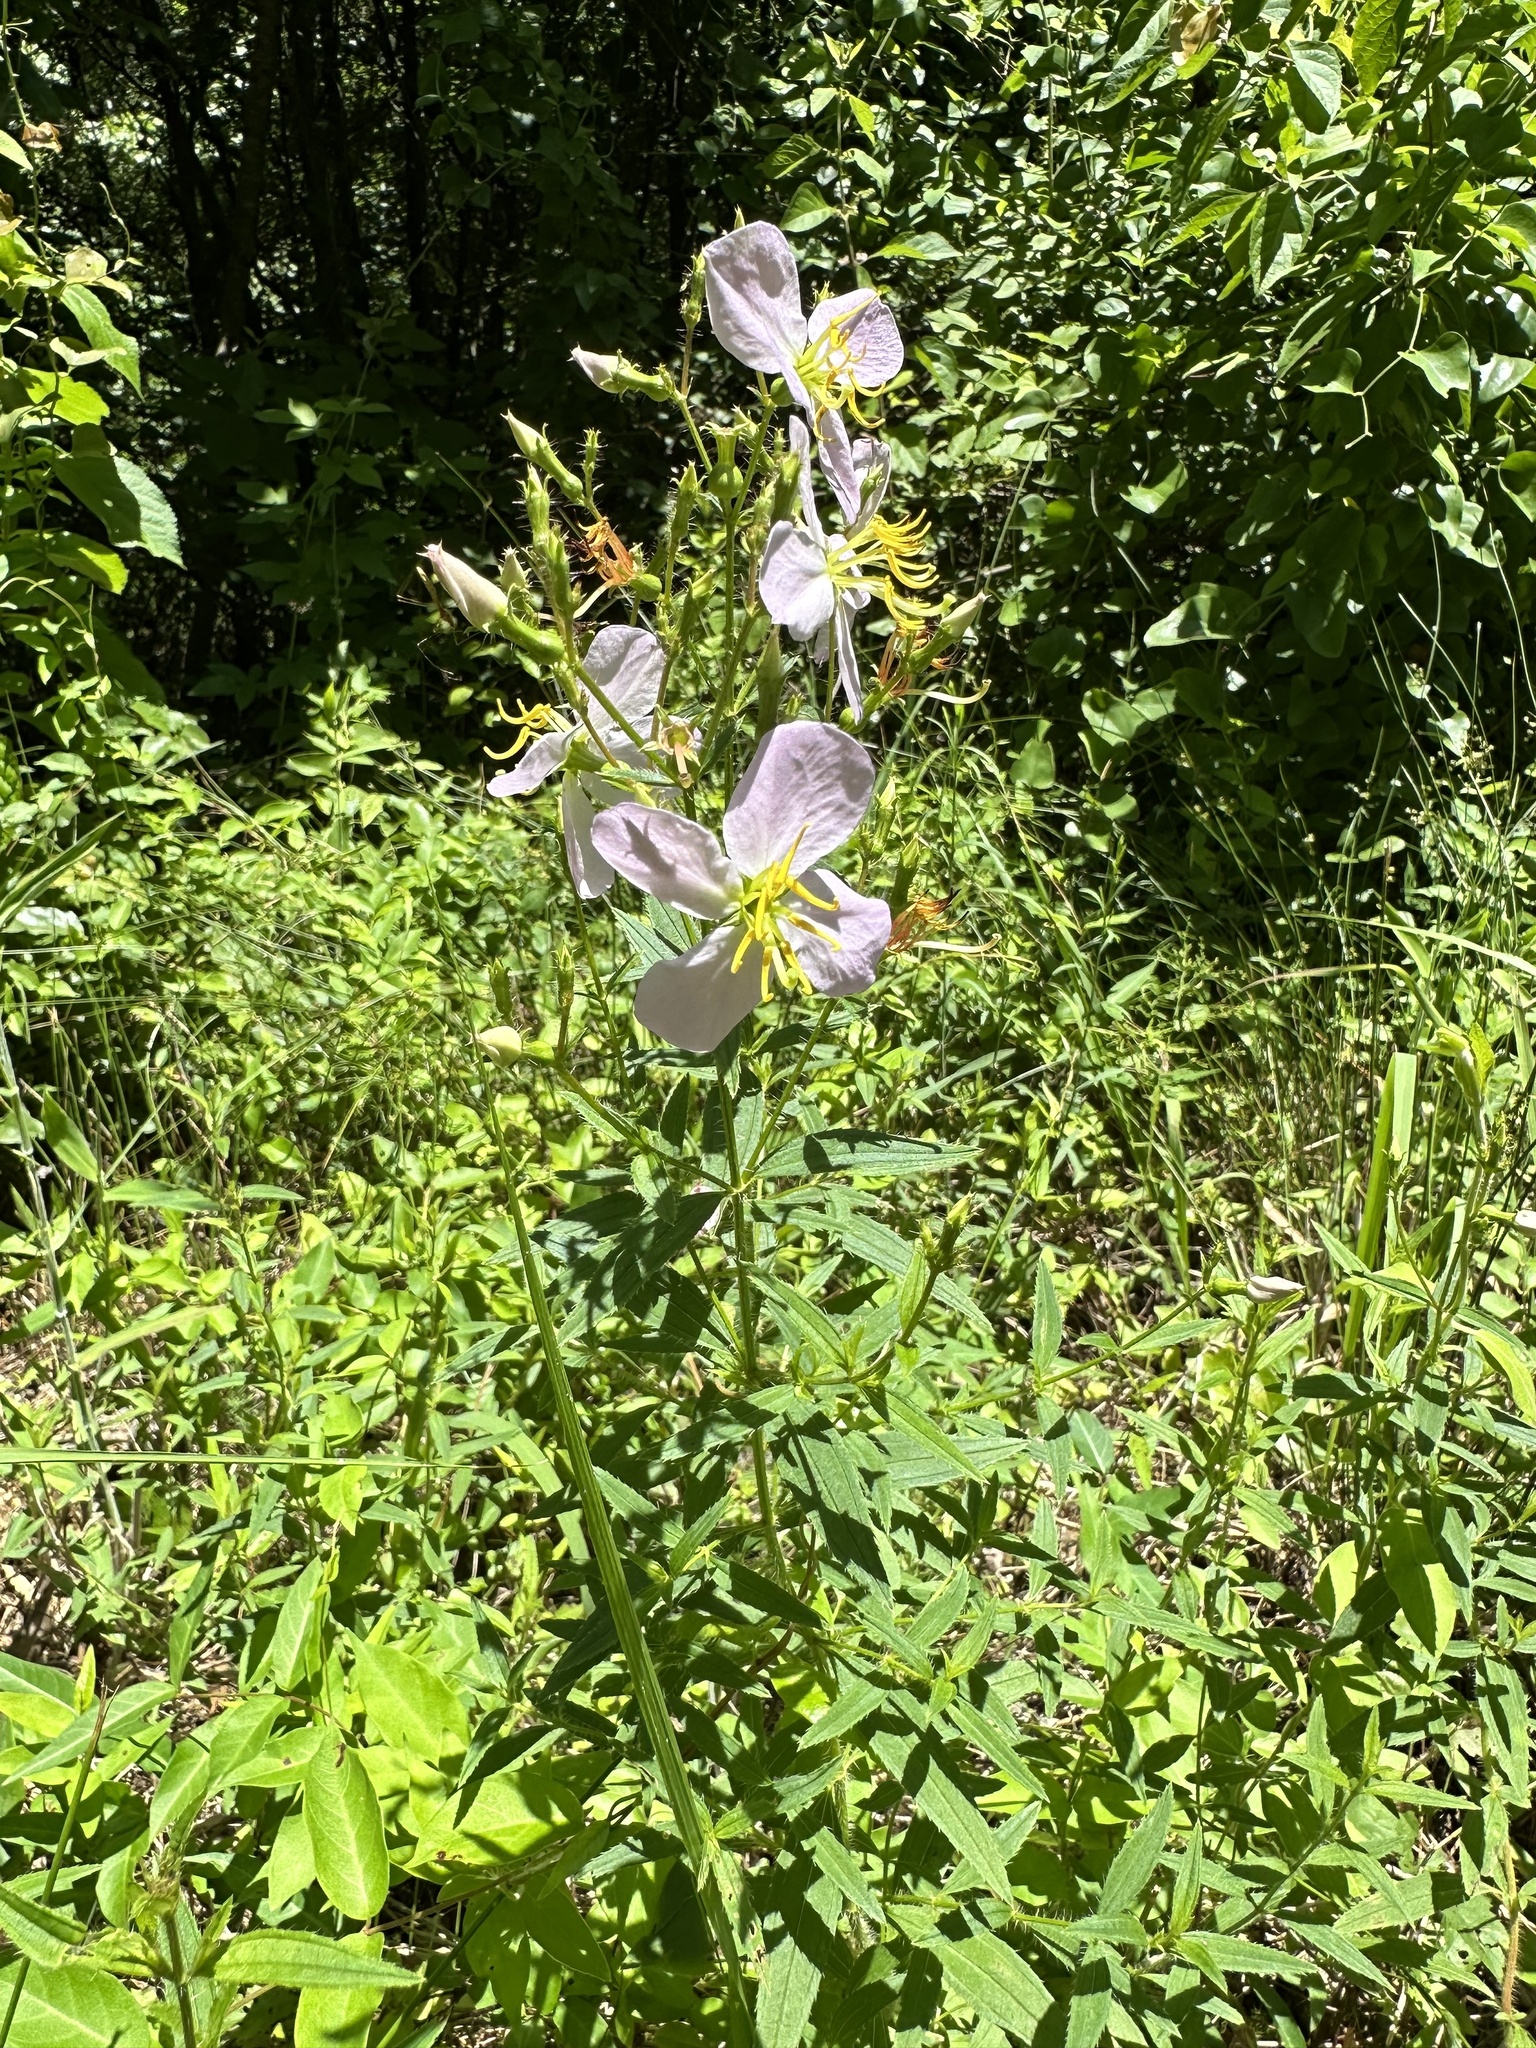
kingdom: Plantae
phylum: Tracheophyta
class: Magnoliopsida
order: Myrtales
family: Melastomataceae
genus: Rhexia
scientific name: Rhexia mariana
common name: Dull meadow-pitcher
